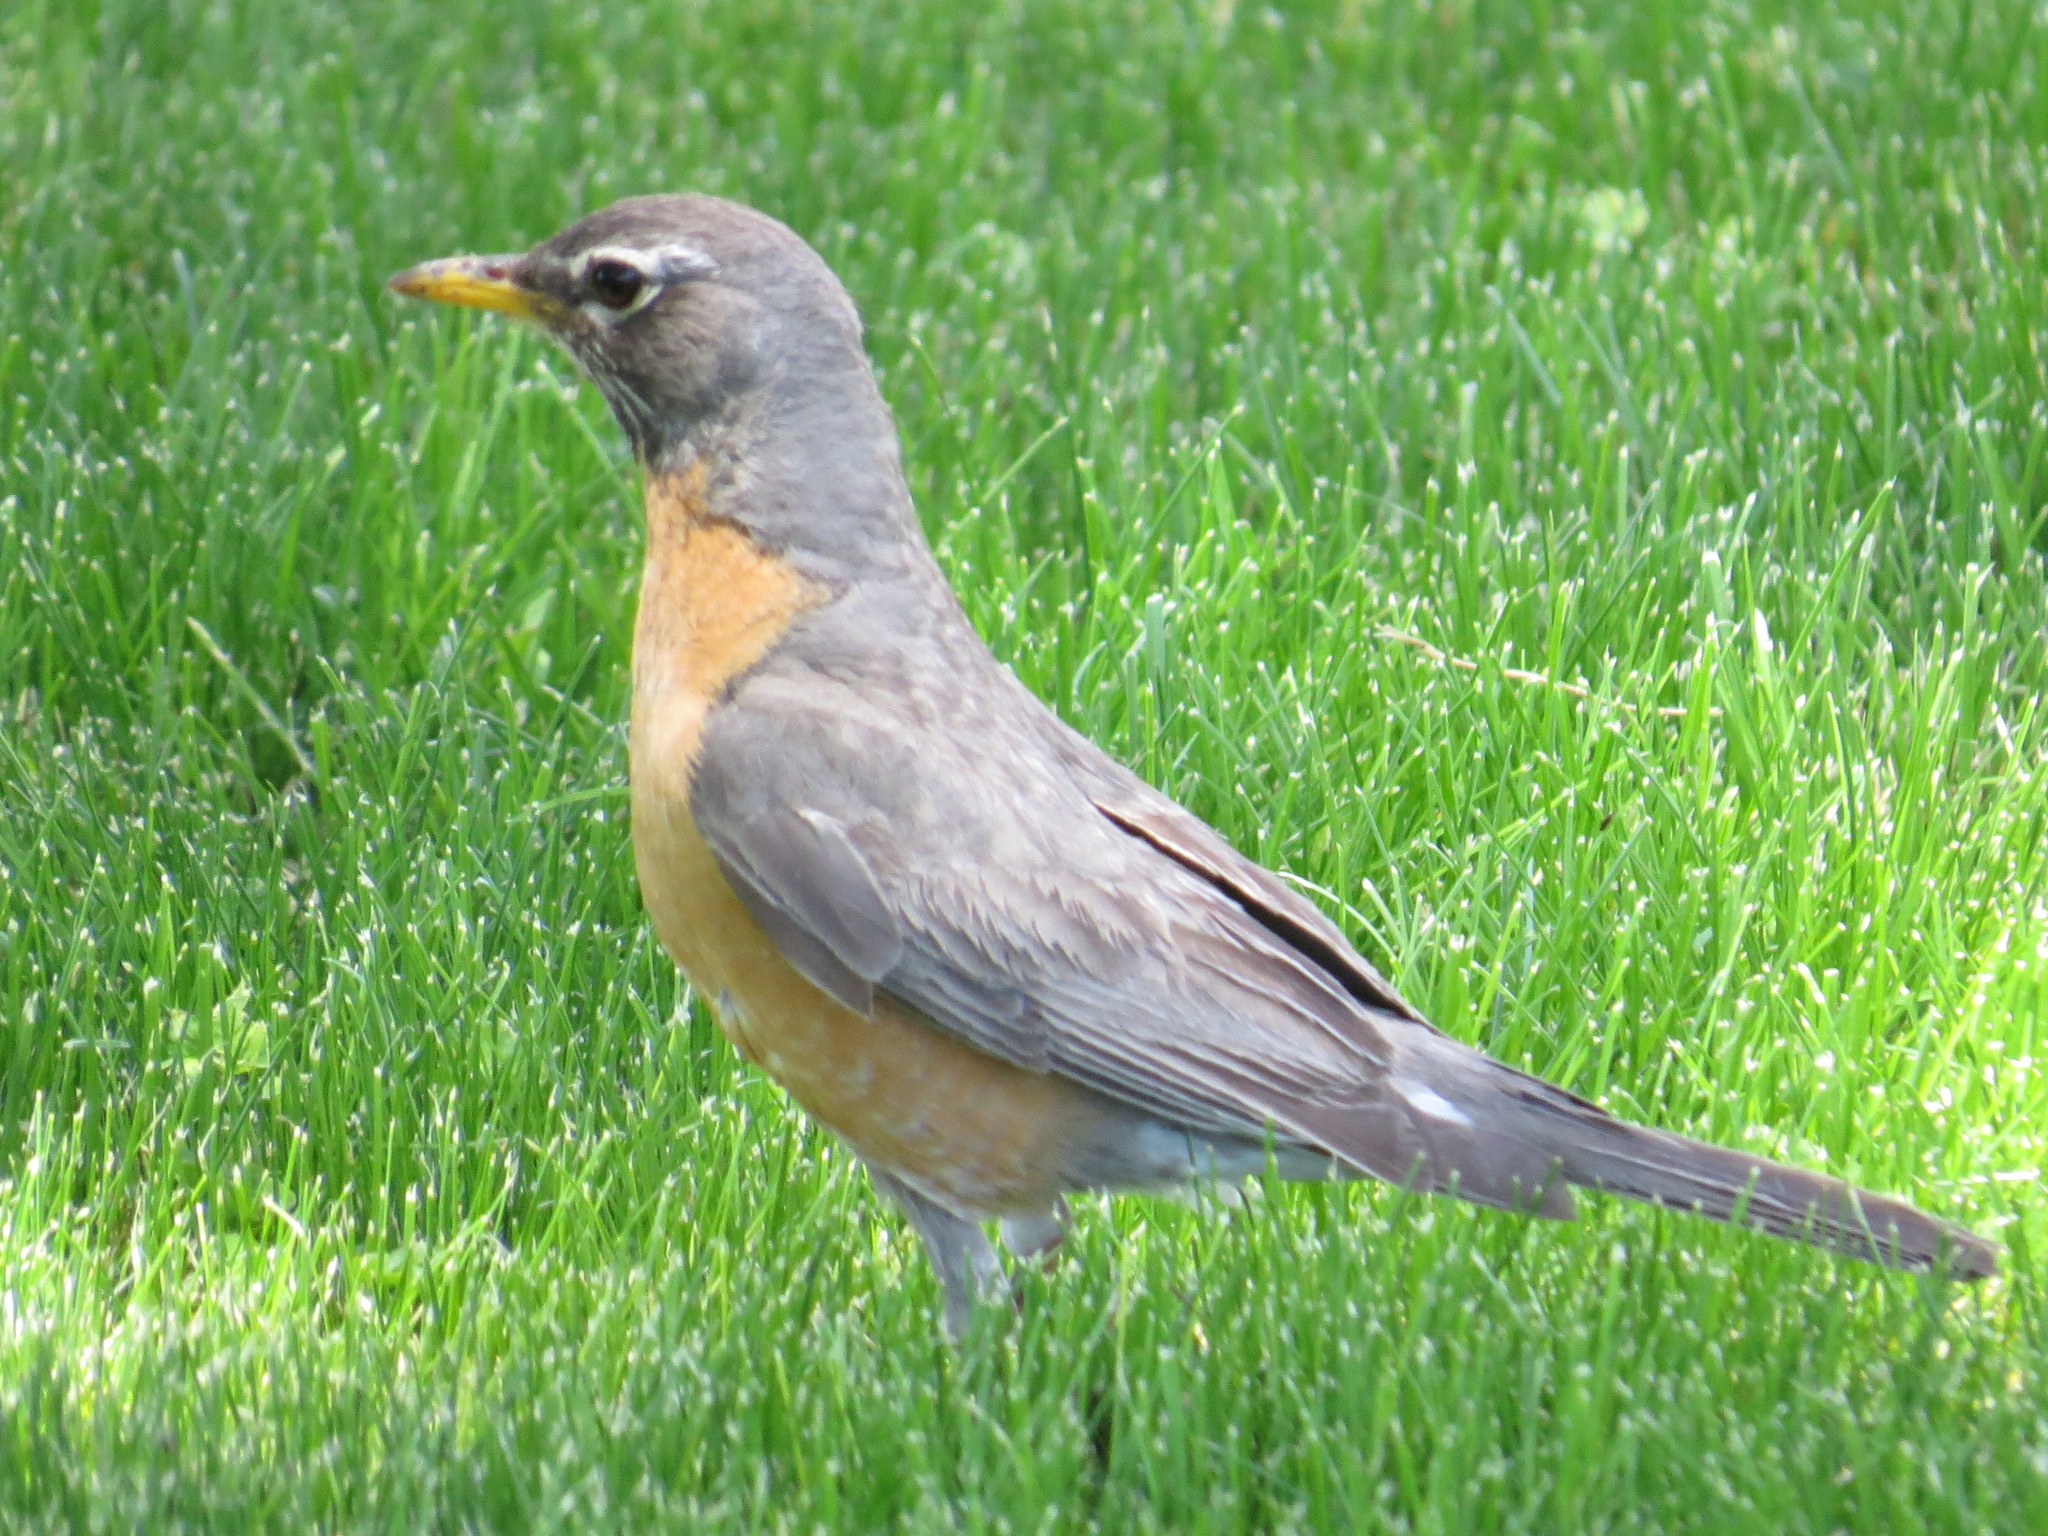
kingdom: Animalia
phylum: Chordata
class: Aves
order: Passeriformes
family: Turdidae
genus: Turdus
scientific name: Turdus migratorius
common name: American robin
